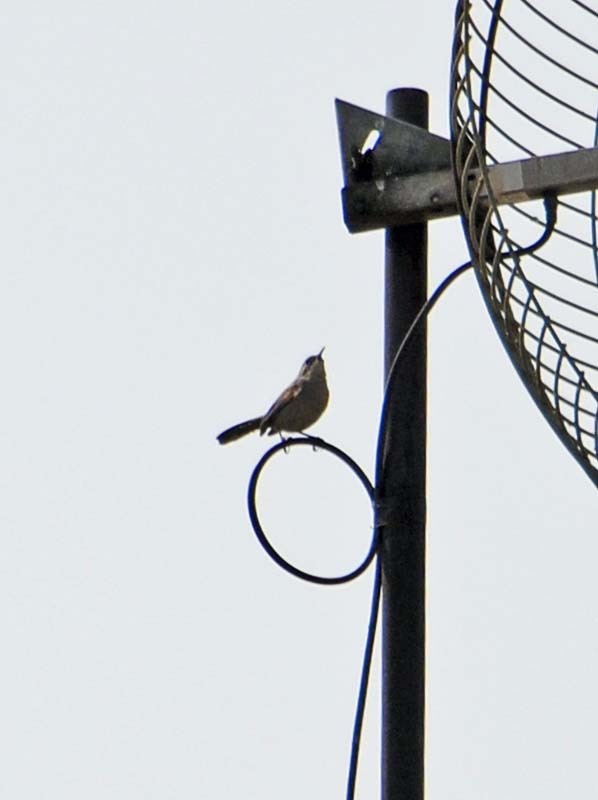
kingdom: Animalia
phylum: Chordata
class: Aves
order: Passeriformes
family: Troglodytidae
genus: Thryomanes
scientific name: Thryomanes bewickii
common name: Bewick's wren
